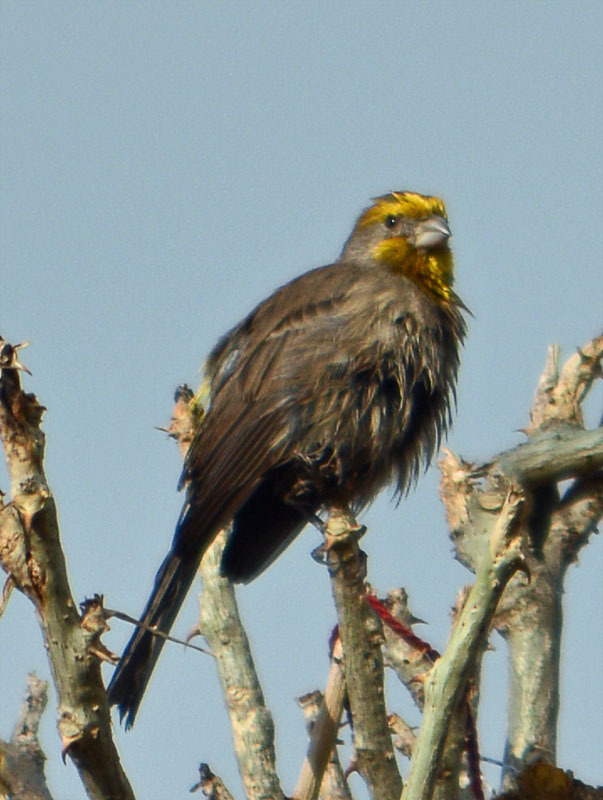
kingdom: Animalia
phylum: Chordata
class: Aves
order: Passeriformes
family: Fringillidae
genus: Haemorhous
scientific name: Haemorhous mexicanus
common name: House finch
